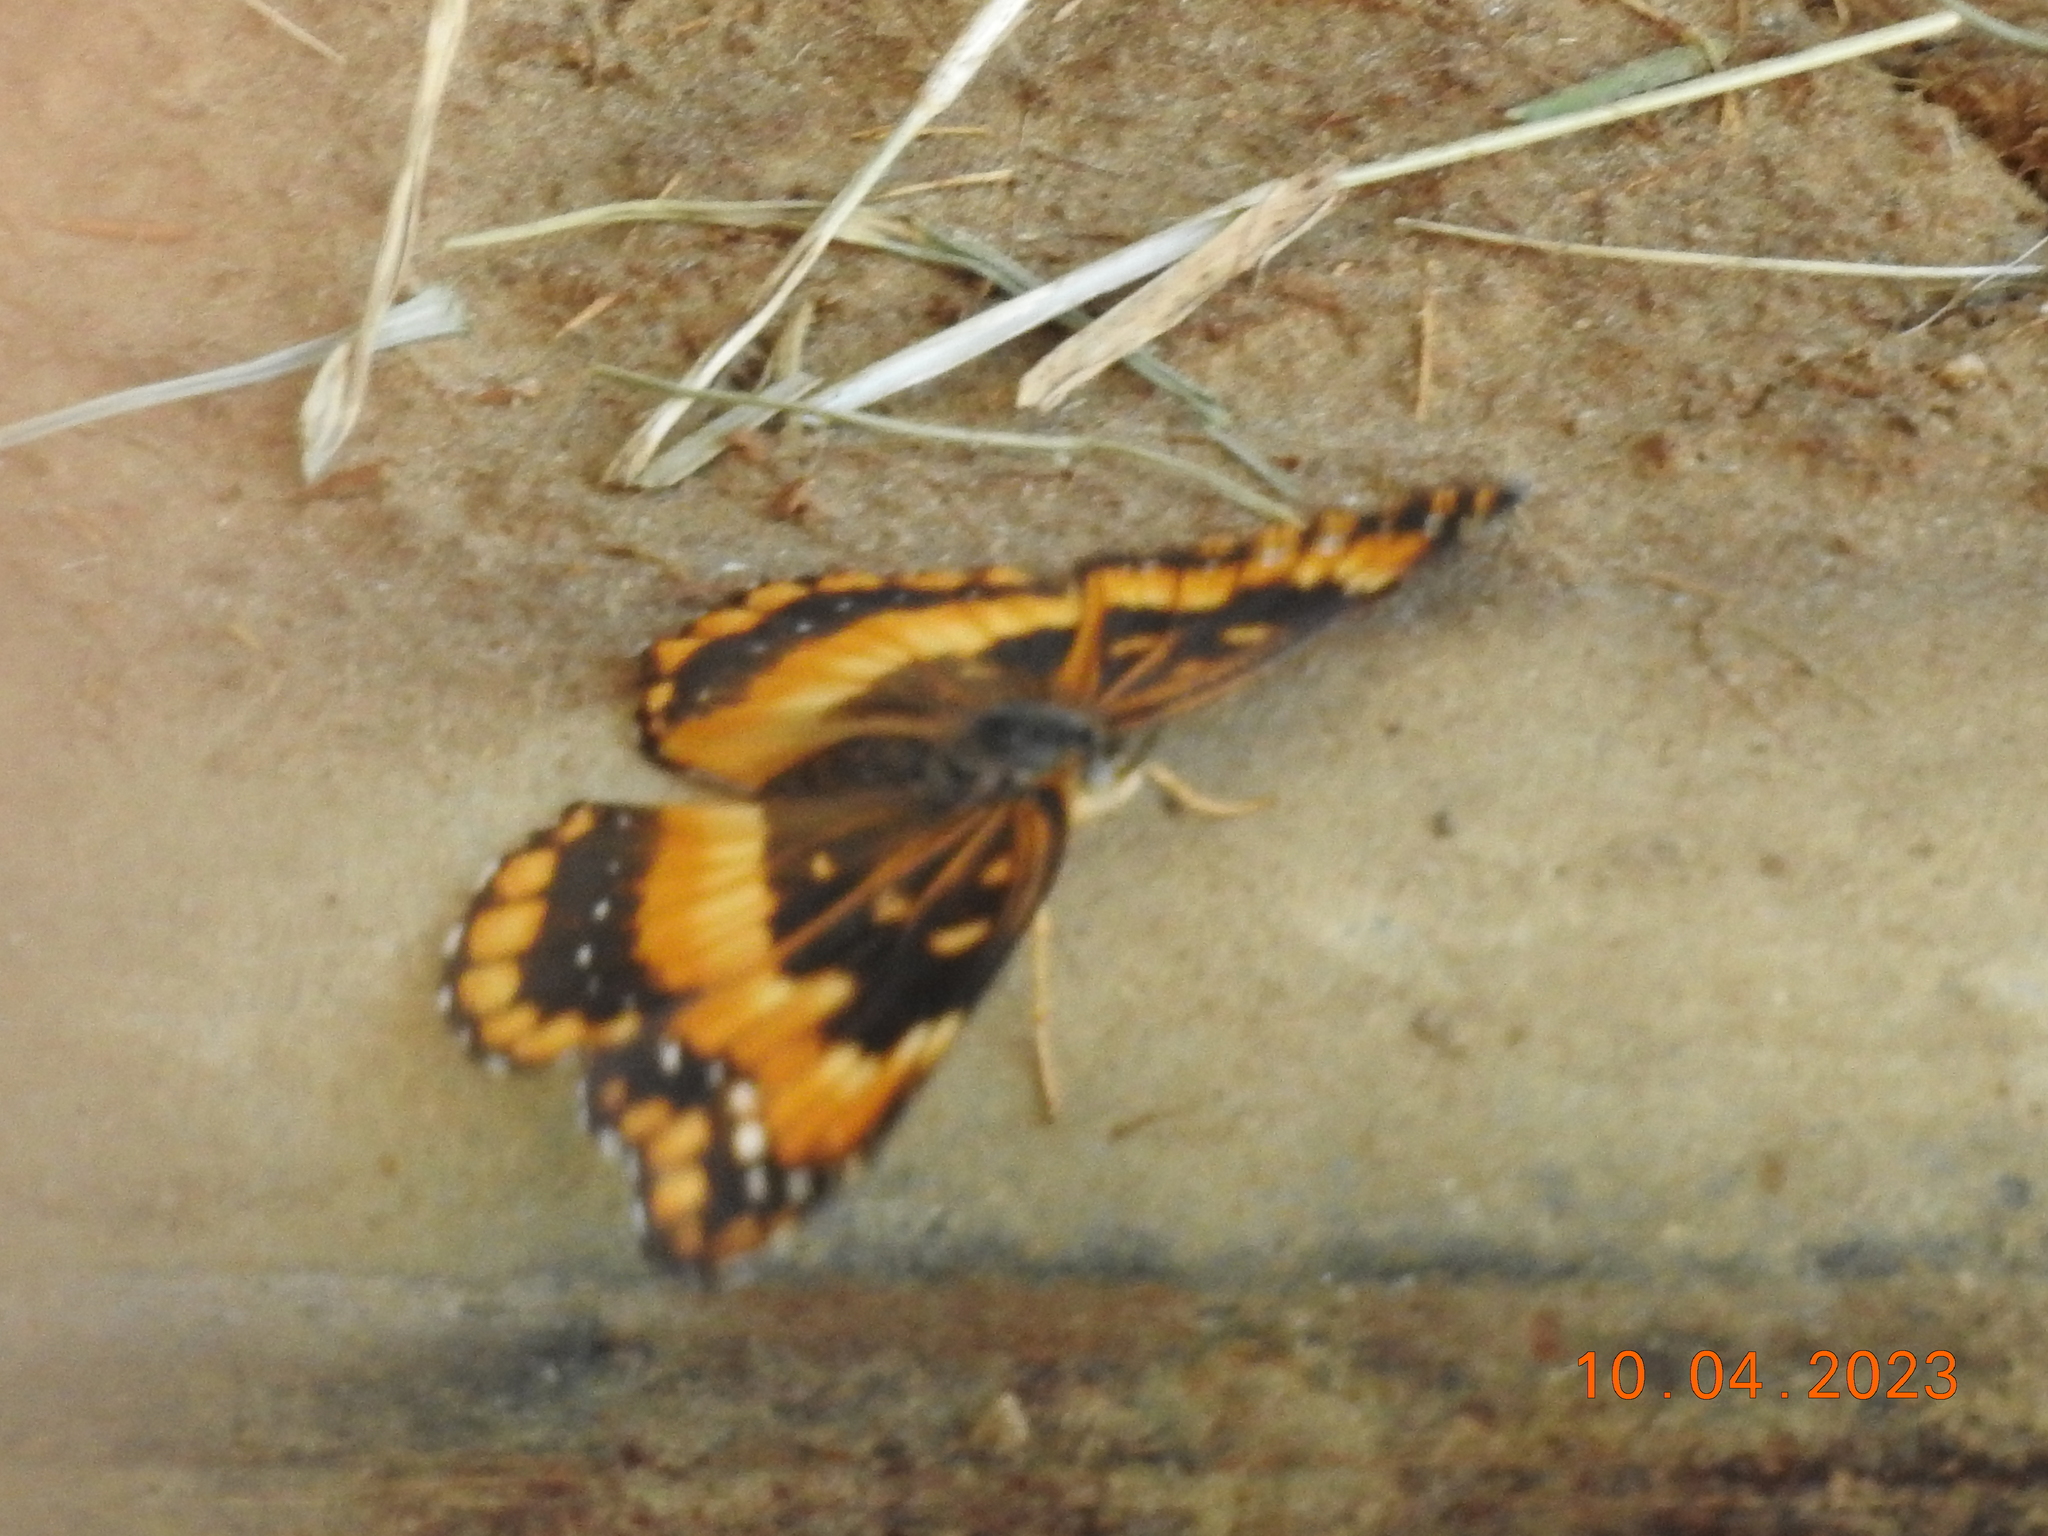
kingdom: Animalia
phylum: Arthropoda
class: Insecta
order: Lepidoptera
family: Nymphalidae
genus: Chlosyne
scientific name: Chlosyne californica
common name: California patch
